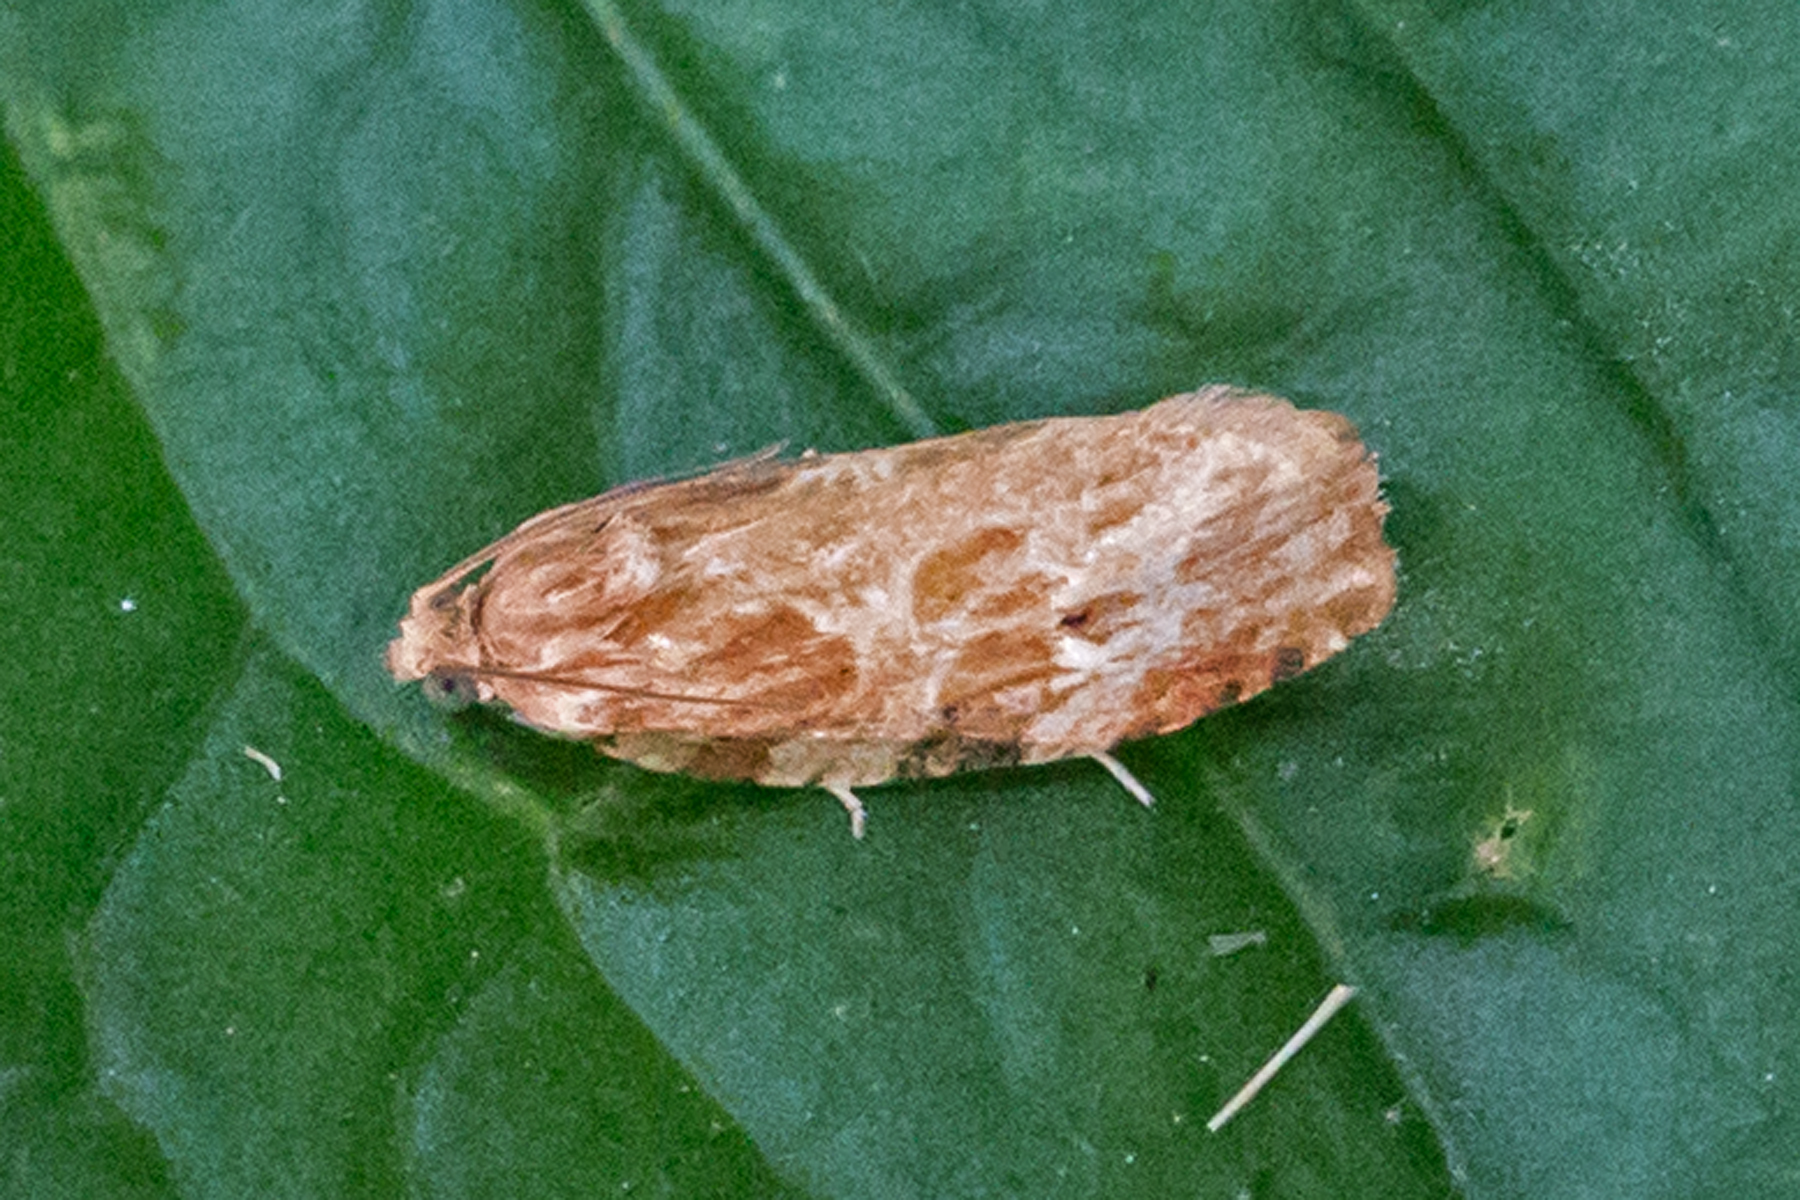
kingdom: Animalia
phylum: Arthropoda
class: Insecta
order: Lepidoptera
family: Tortricidae
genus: Phaecasiophora
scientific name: Phaecasiophora confixana
